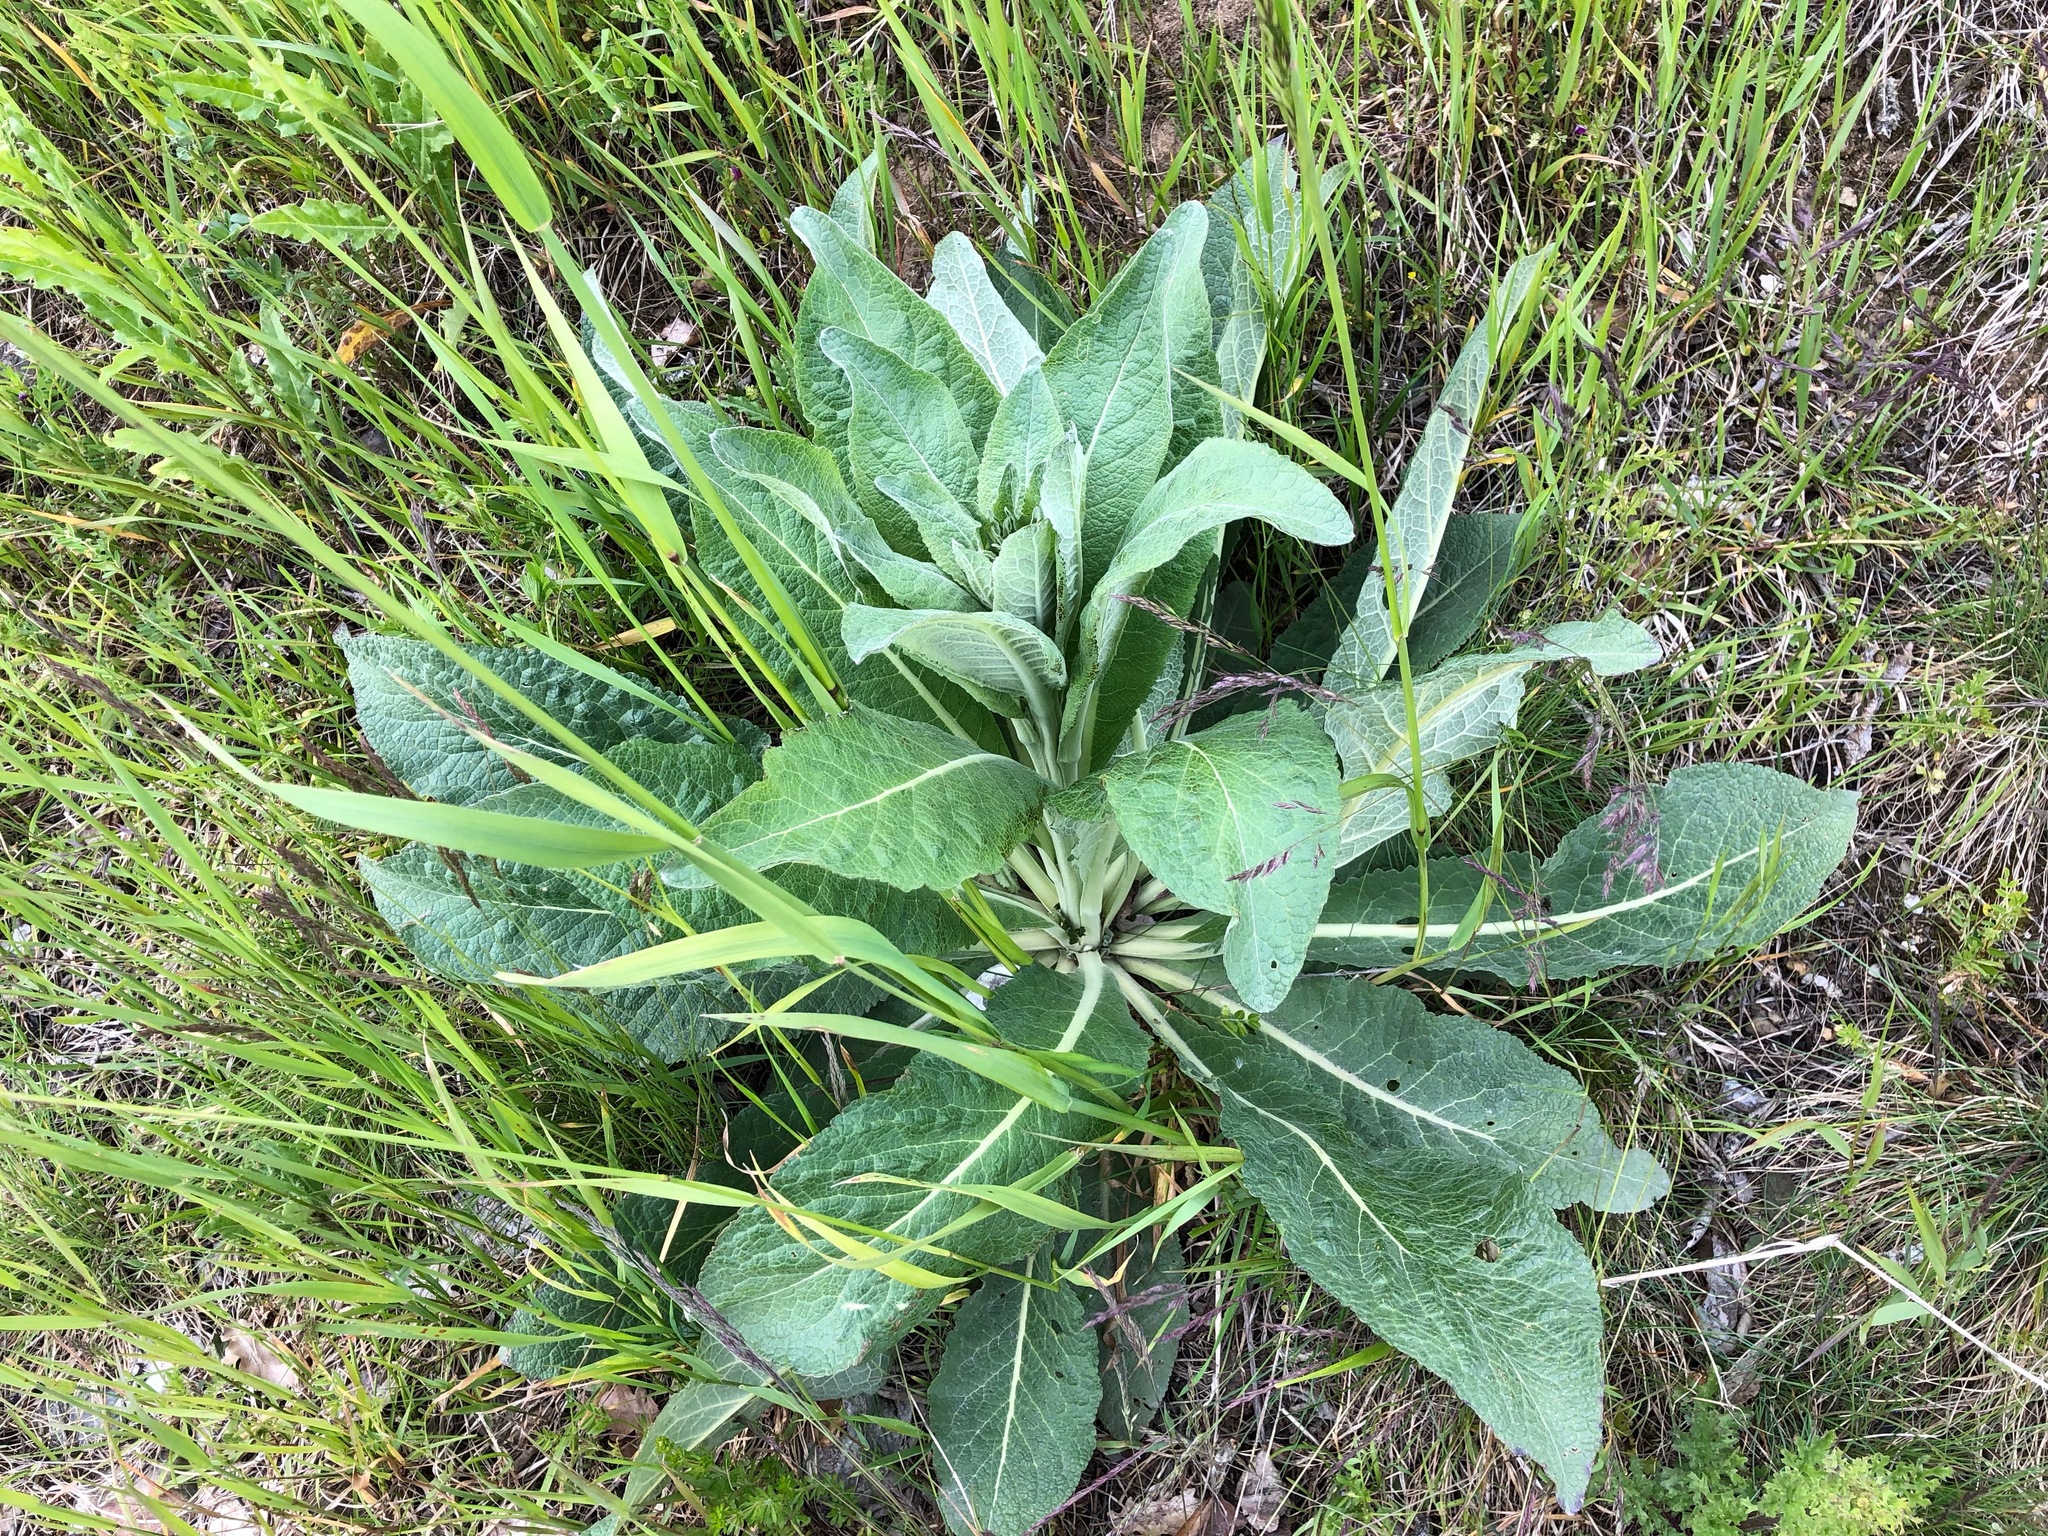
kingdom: Plantae
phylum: Tracheophyta
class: Magnoliopsida
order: Lamiales
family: Scrophulariaceae
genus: Verbascum
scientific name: Verbascum lychnitis
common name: White mullein
